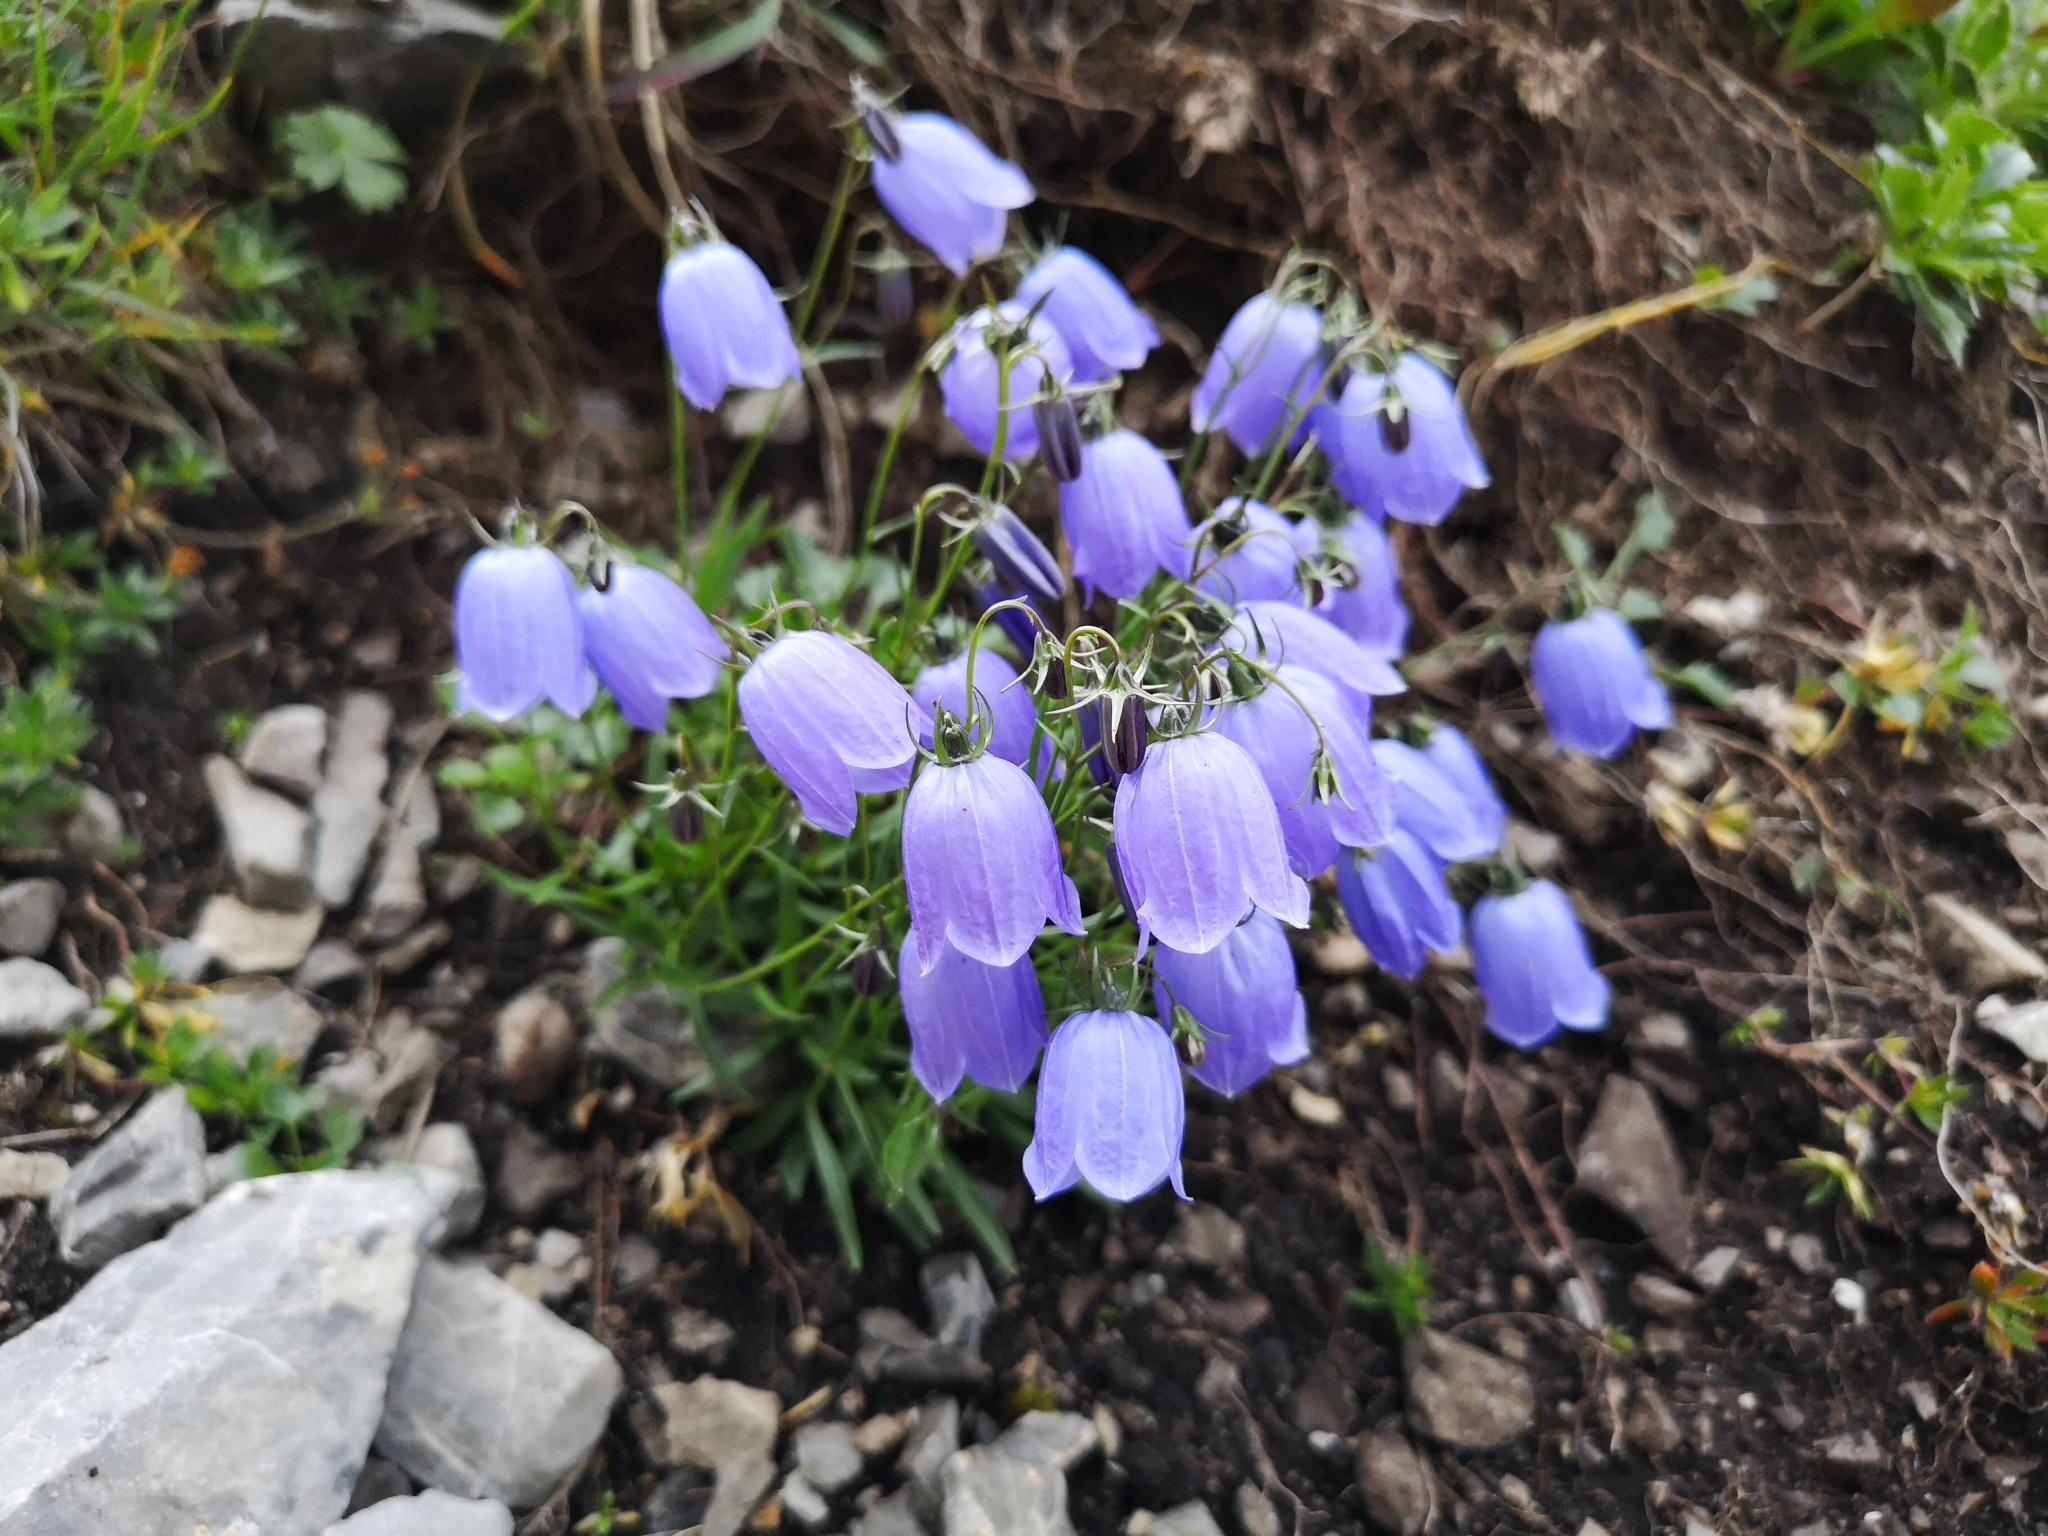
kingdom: Plantae
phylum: Tracheophyta
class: Magnoliopsida
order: Asterales
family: Campanulaceae
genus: Campanula
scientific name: Campanula cochleariifolia
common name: Fairies'-thimbles
